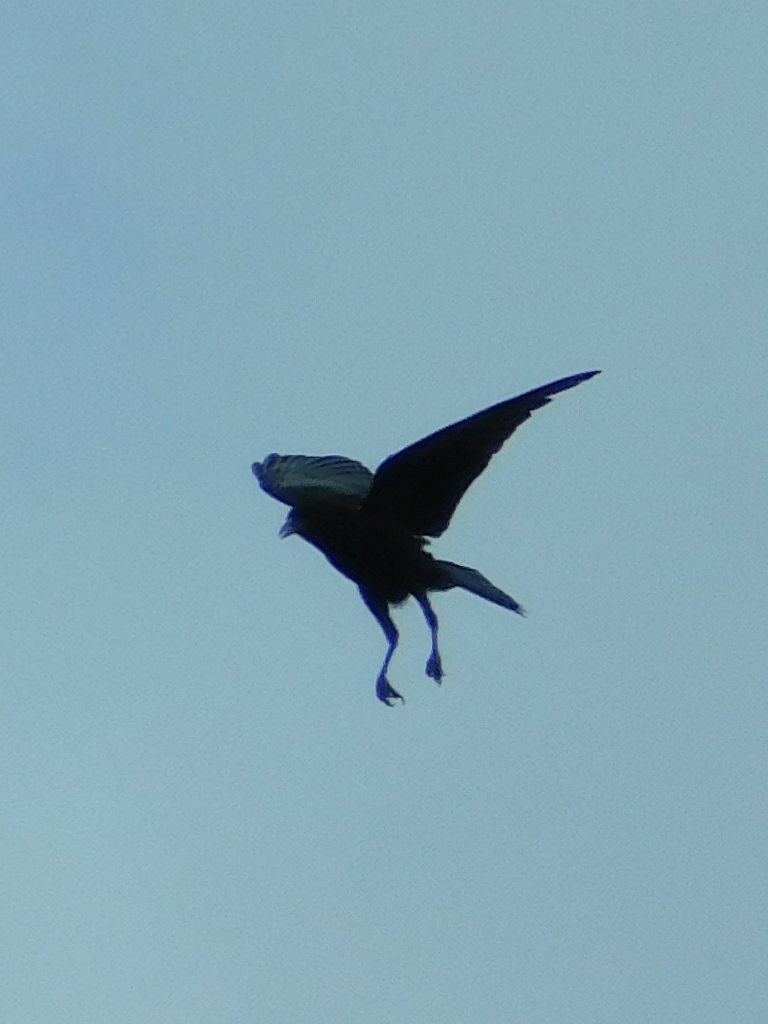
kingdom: Animalia
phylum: Chordata
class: Aves
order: Passeriformes
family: Corvidae
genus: Corvus
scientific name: Corvus capensis
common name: Cape crow
